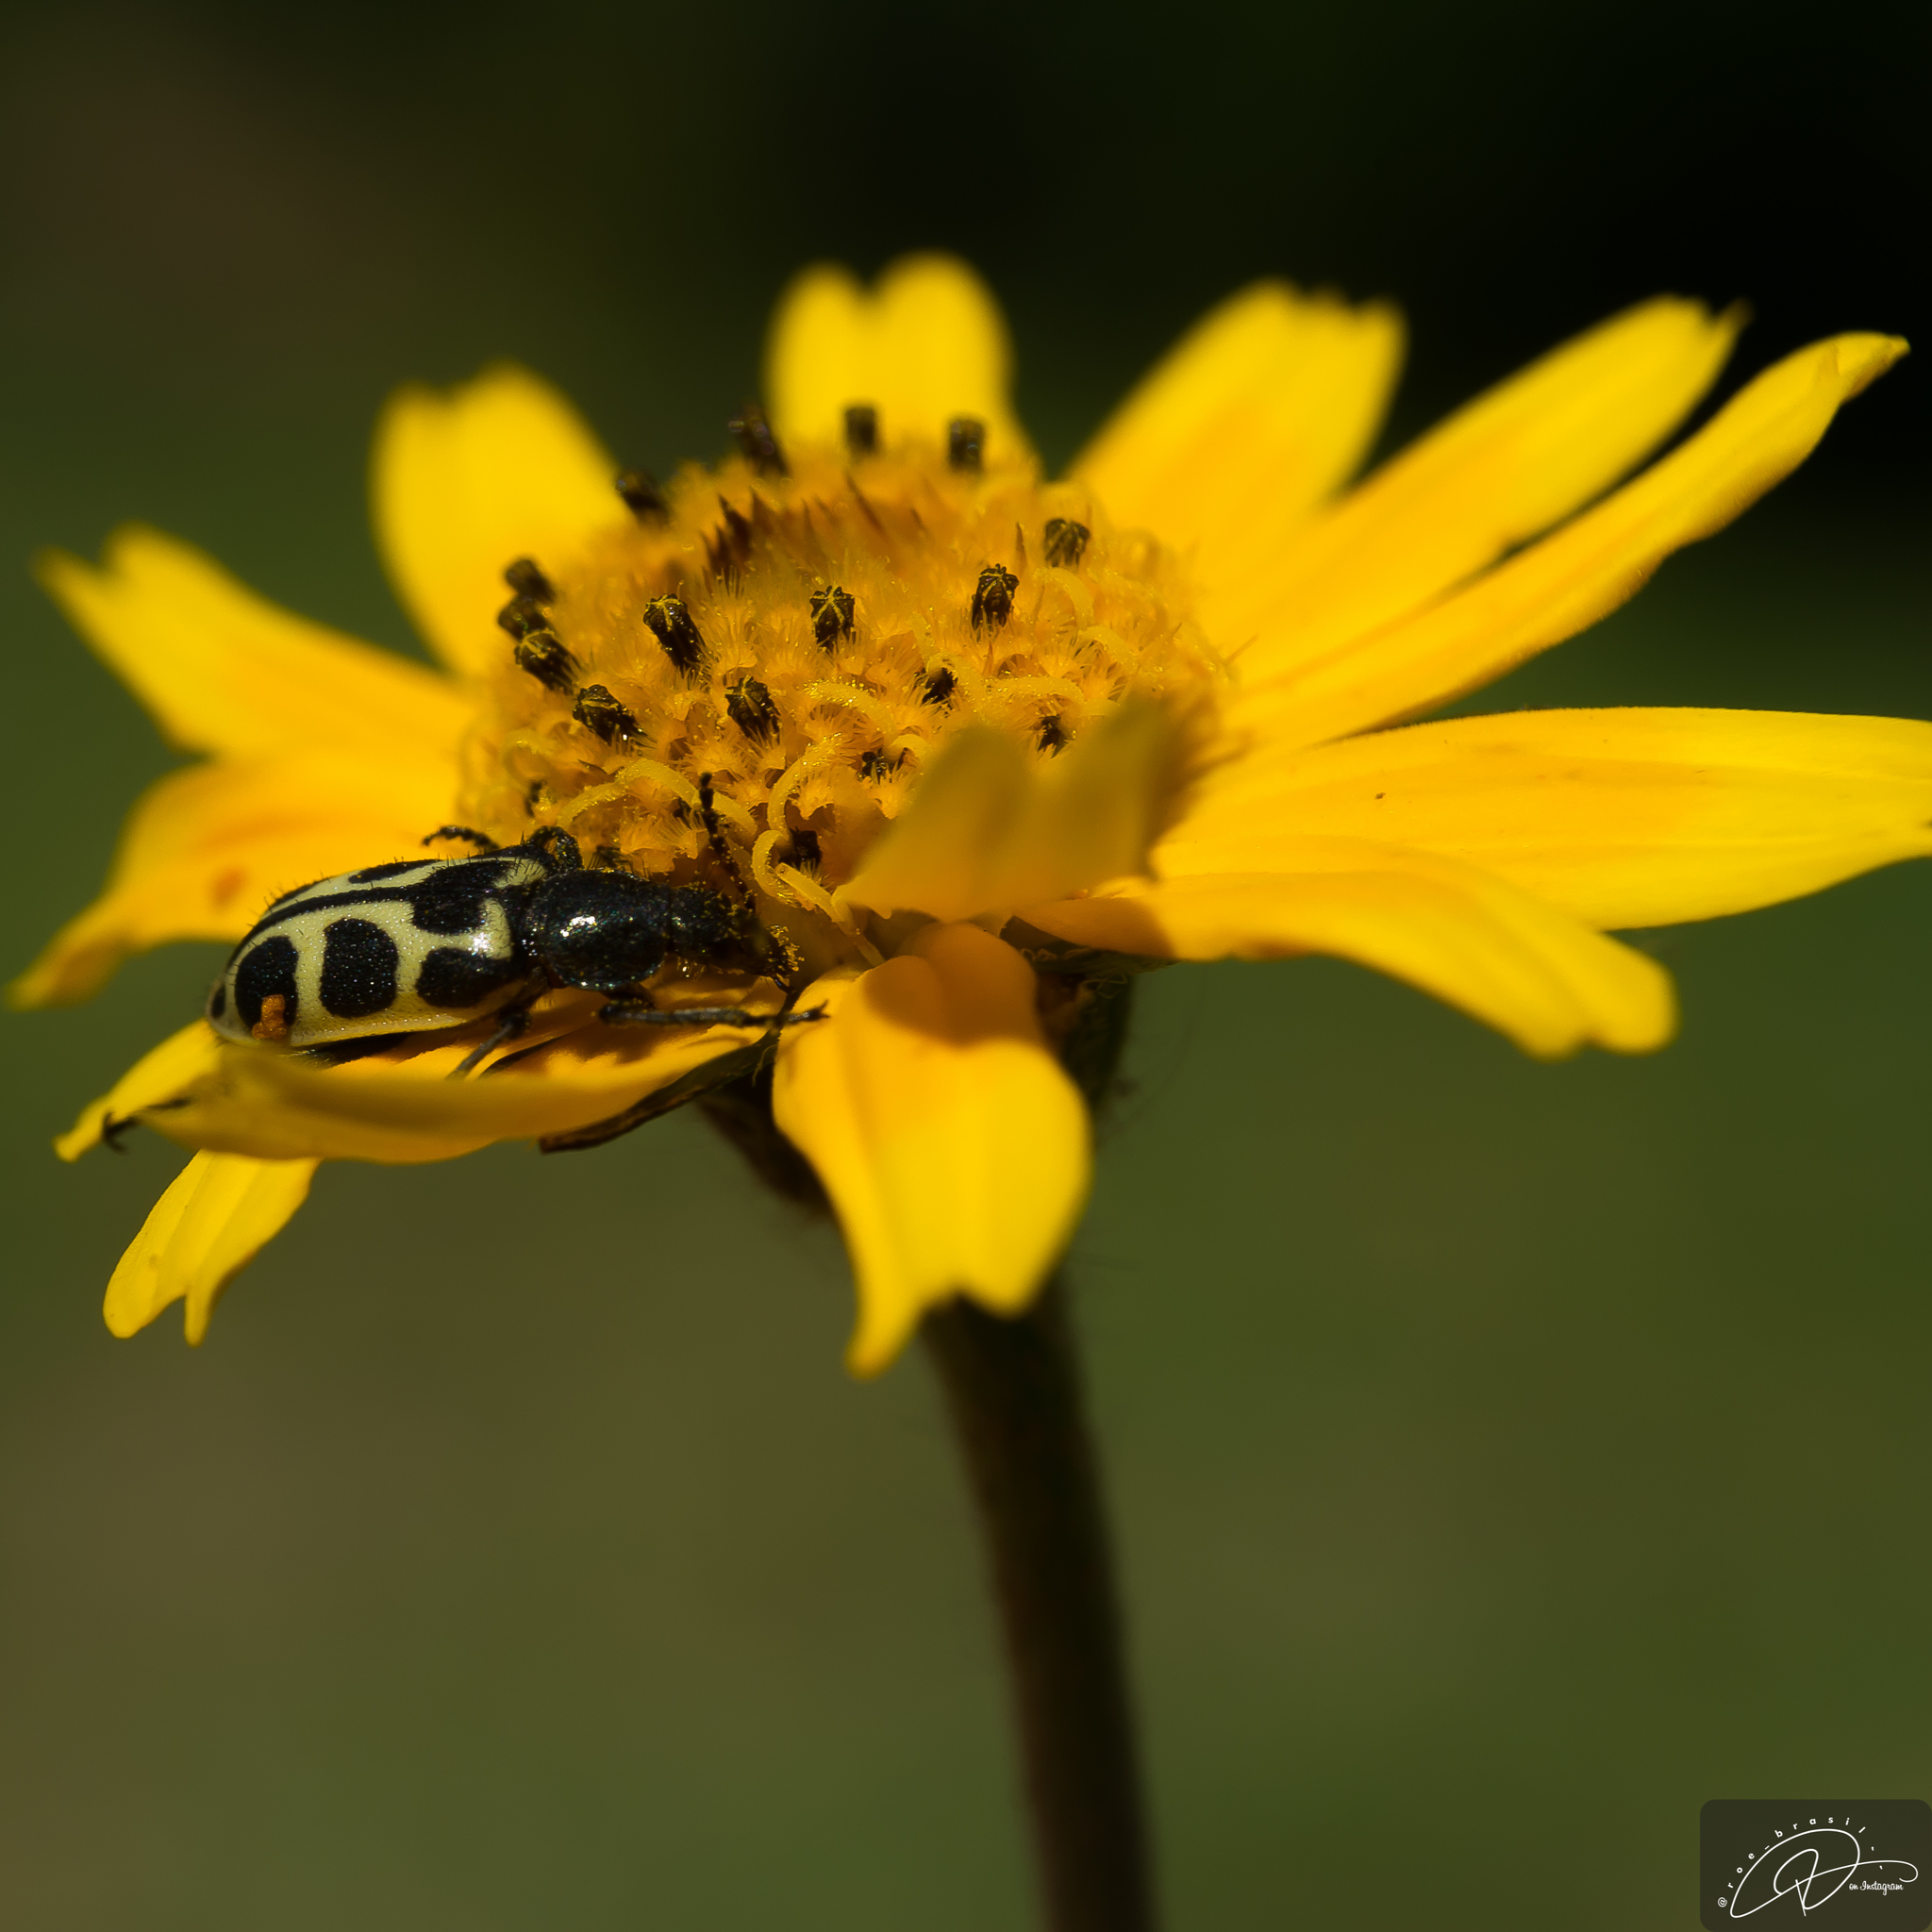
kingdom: Animalia
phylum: Arthropoda
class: Insecta
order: Coleoptera
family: Melyridae
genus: Astylus
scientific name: Astylus
